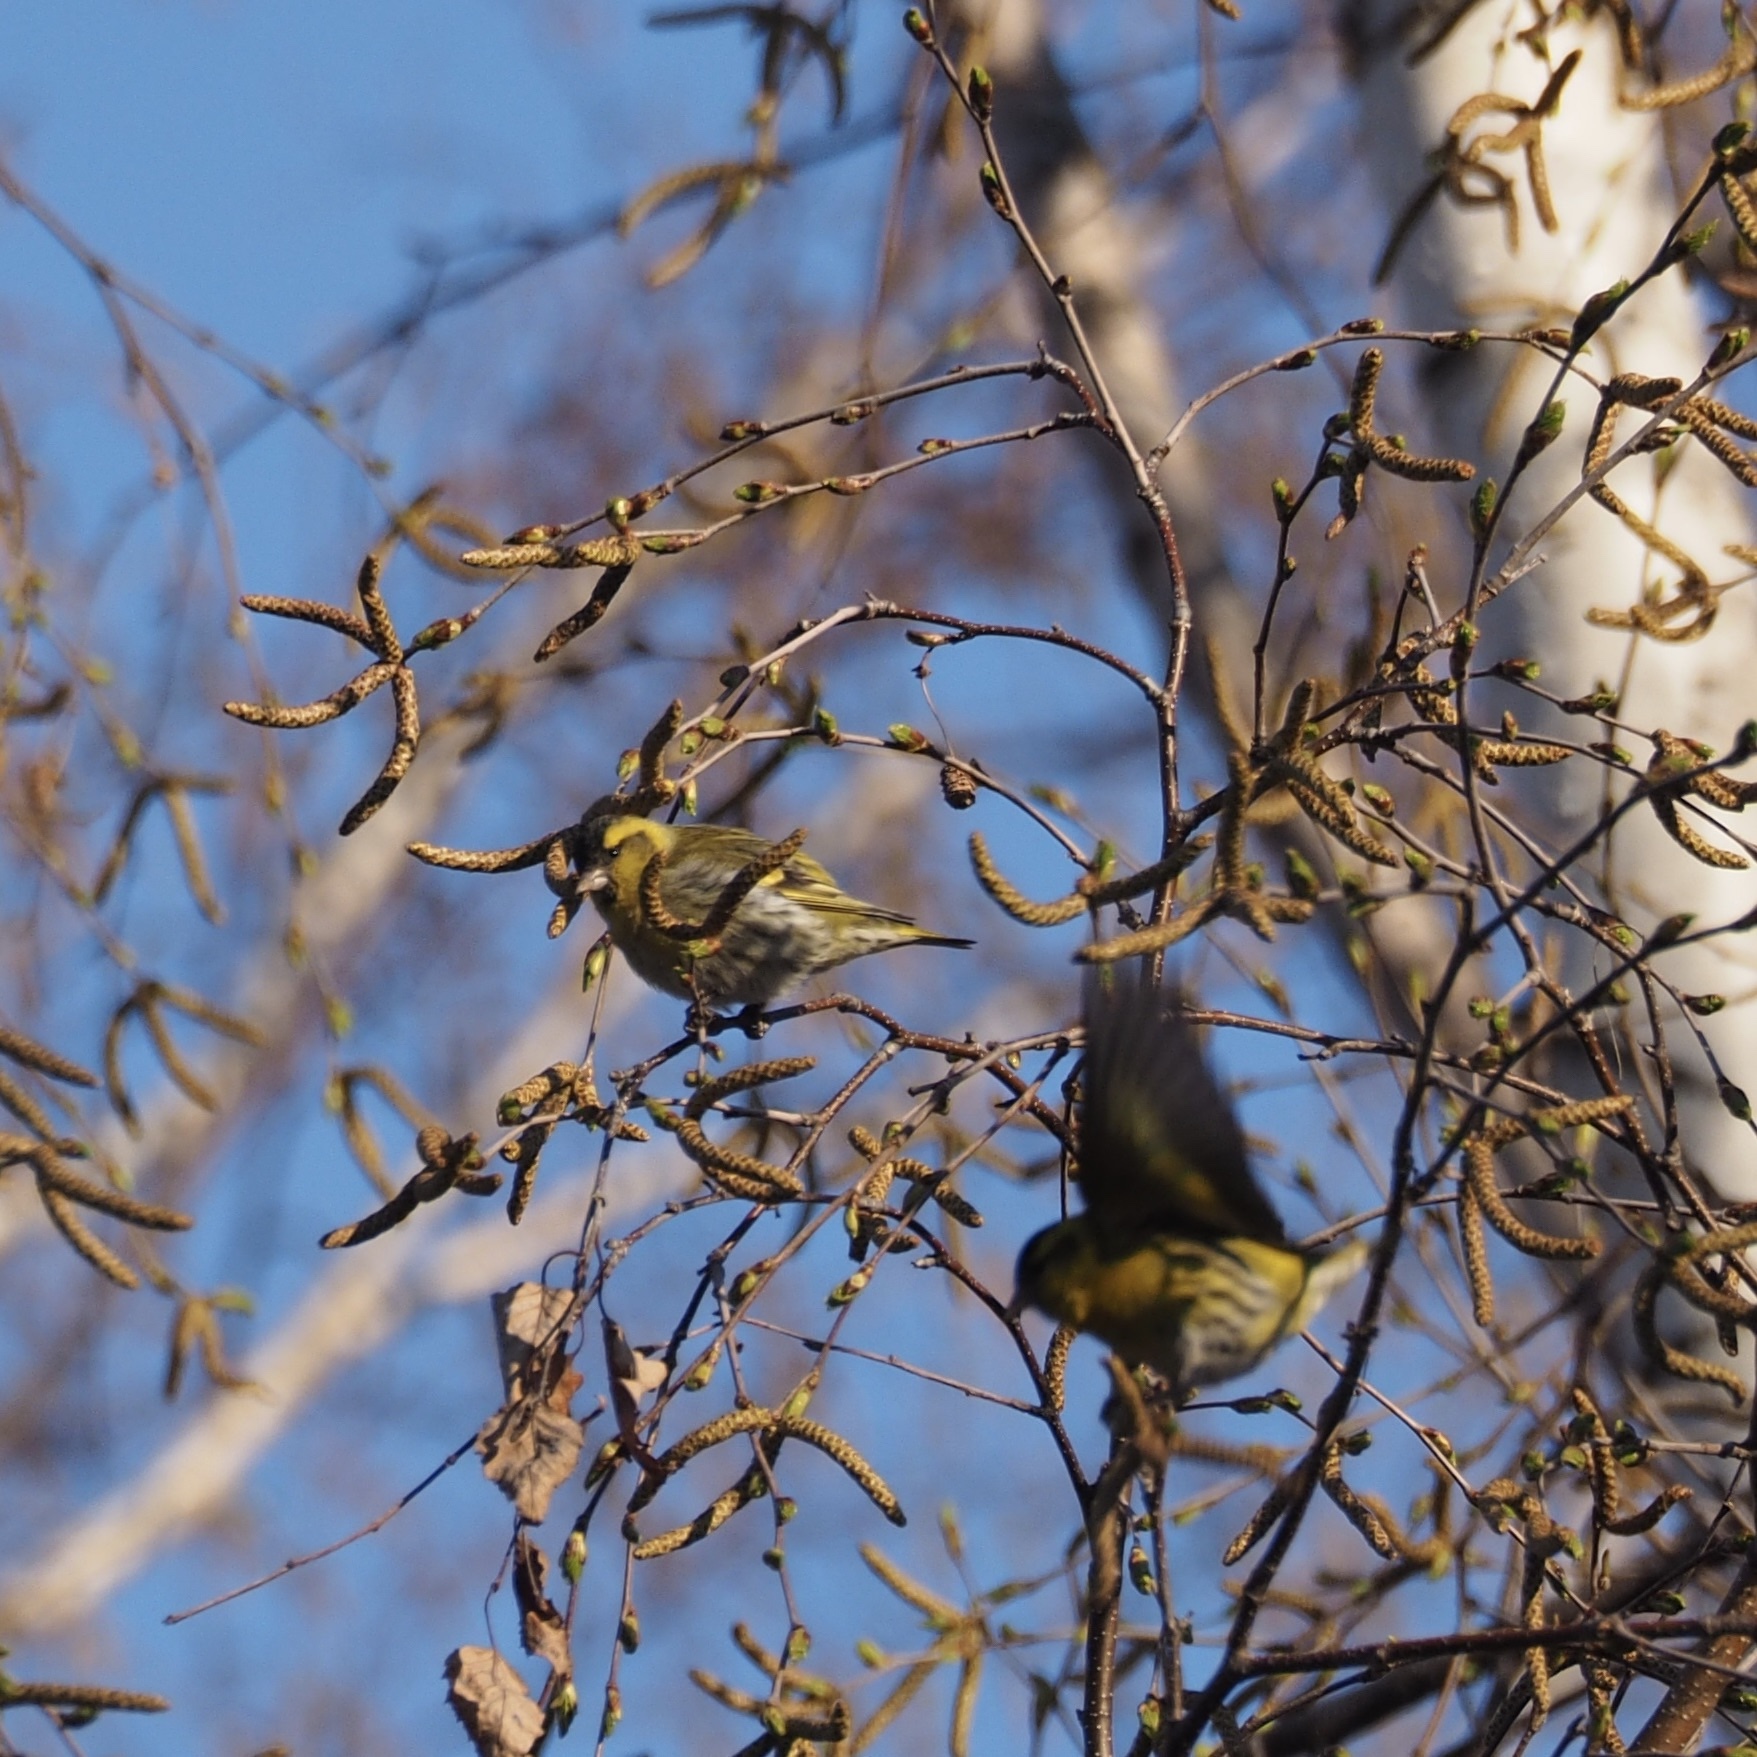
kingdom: Animalia
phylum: Chordata
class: Aves
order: Passeriformes
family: Fringillidae
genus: Spinus
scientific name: Spinus spinus
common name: Eurasian siskin
